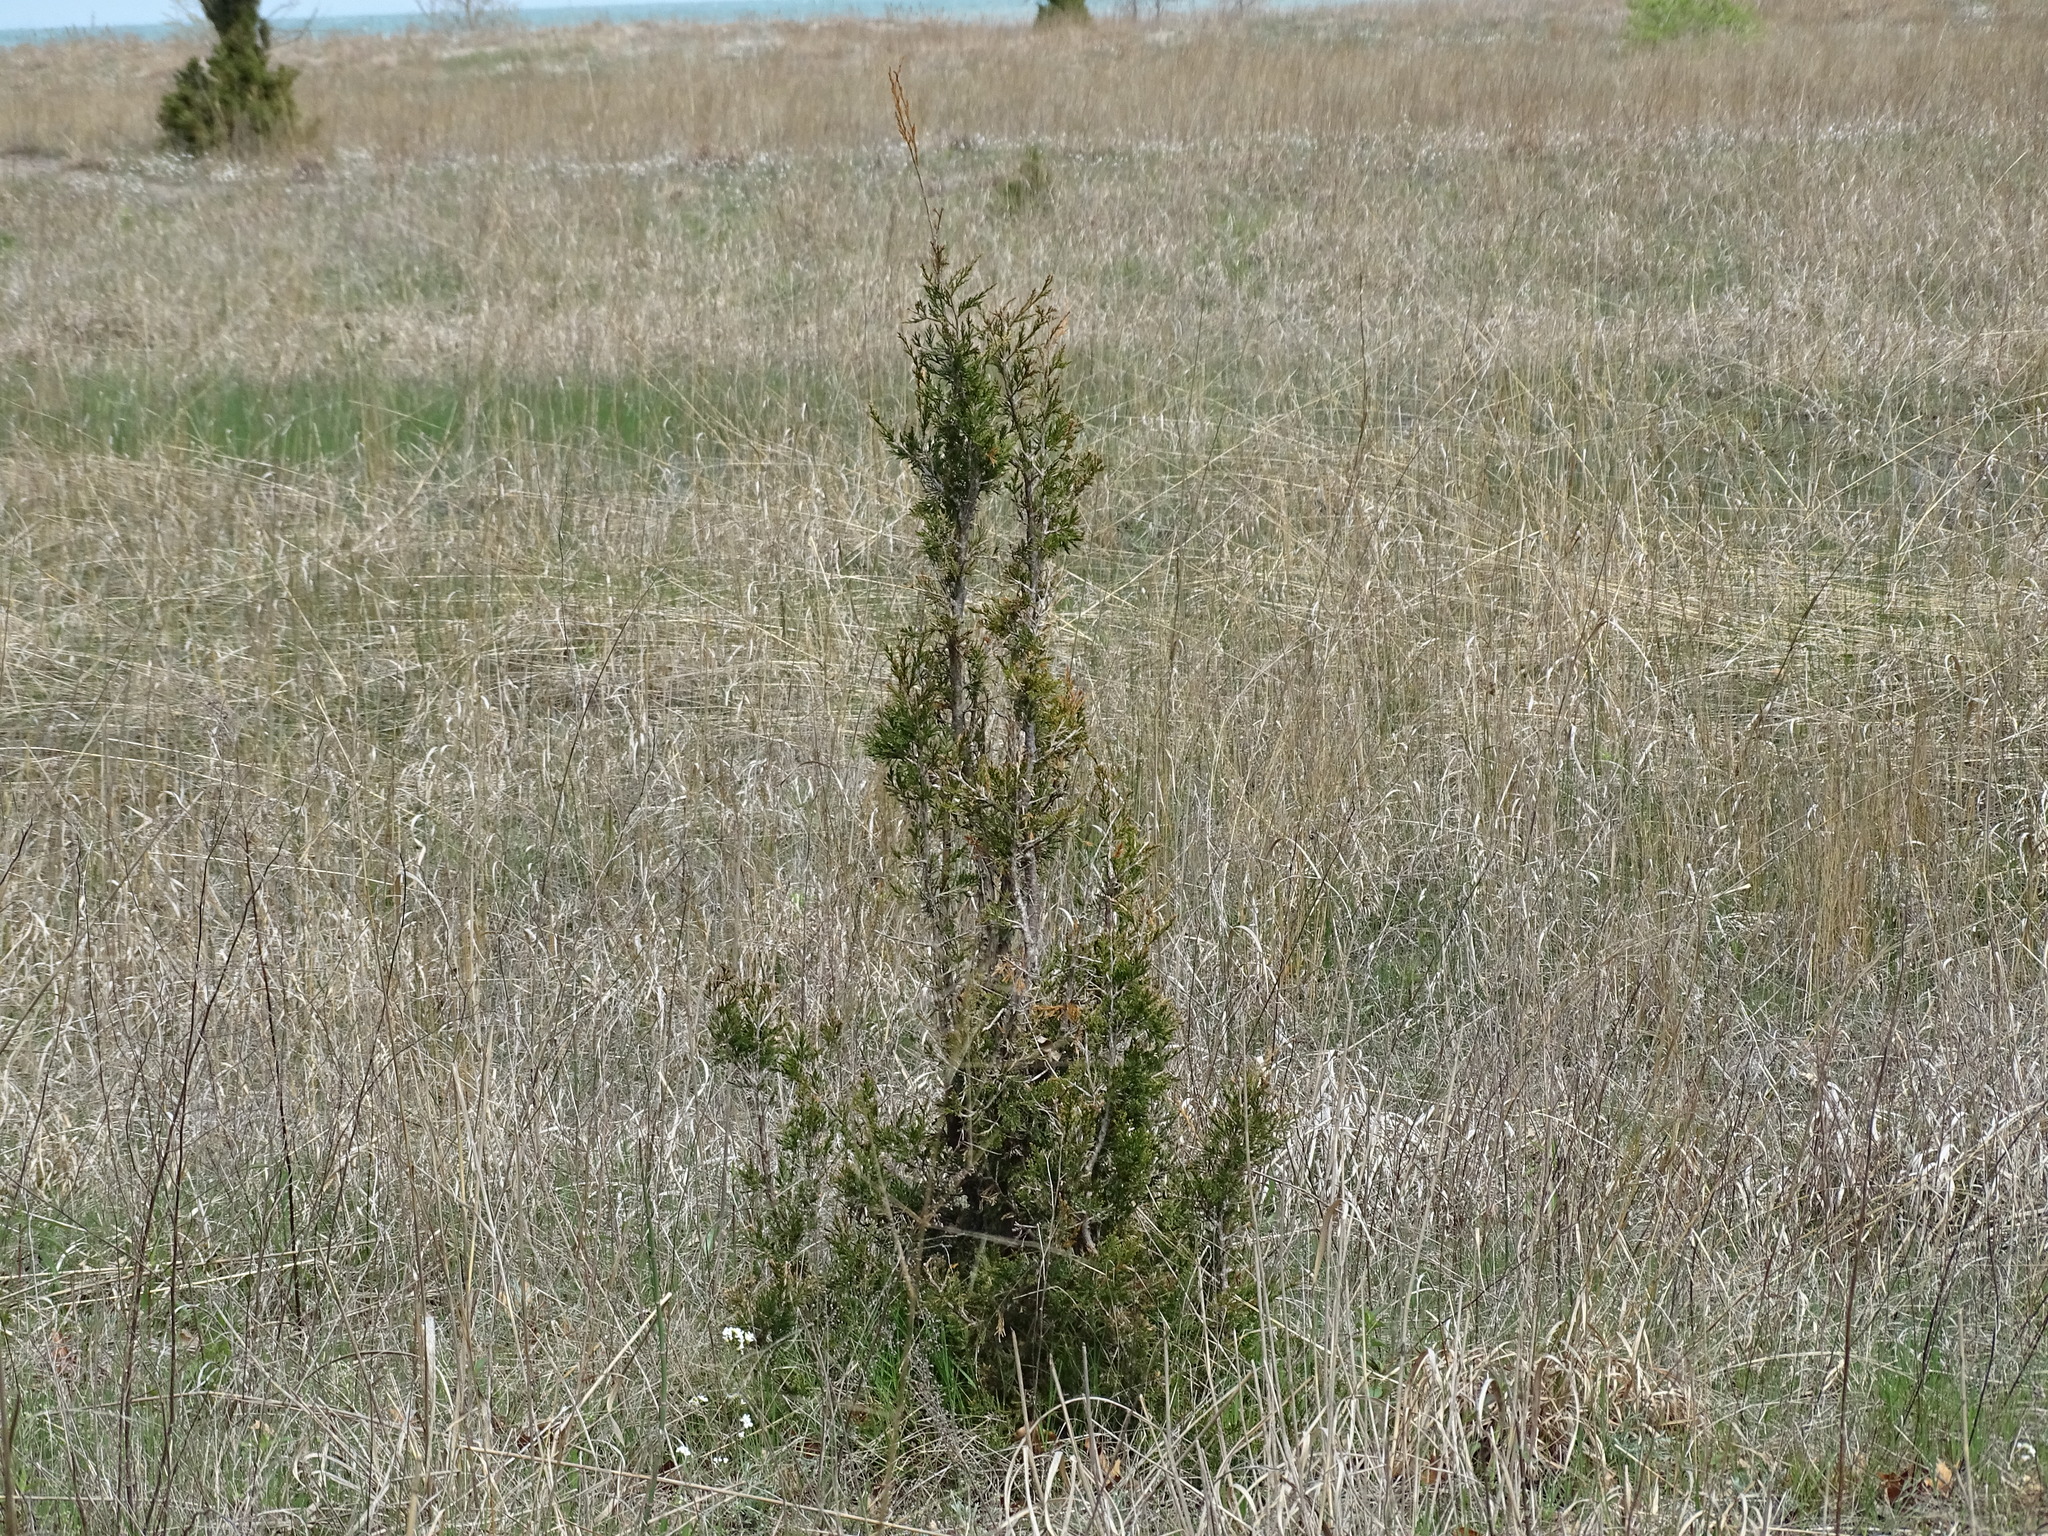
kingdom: Plantae
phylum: Tracheophyta
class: Pinopsida
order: Pinales
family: Cupressaceae
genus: Juniperus
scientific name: Juniperus virginiana
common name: Red juniper
